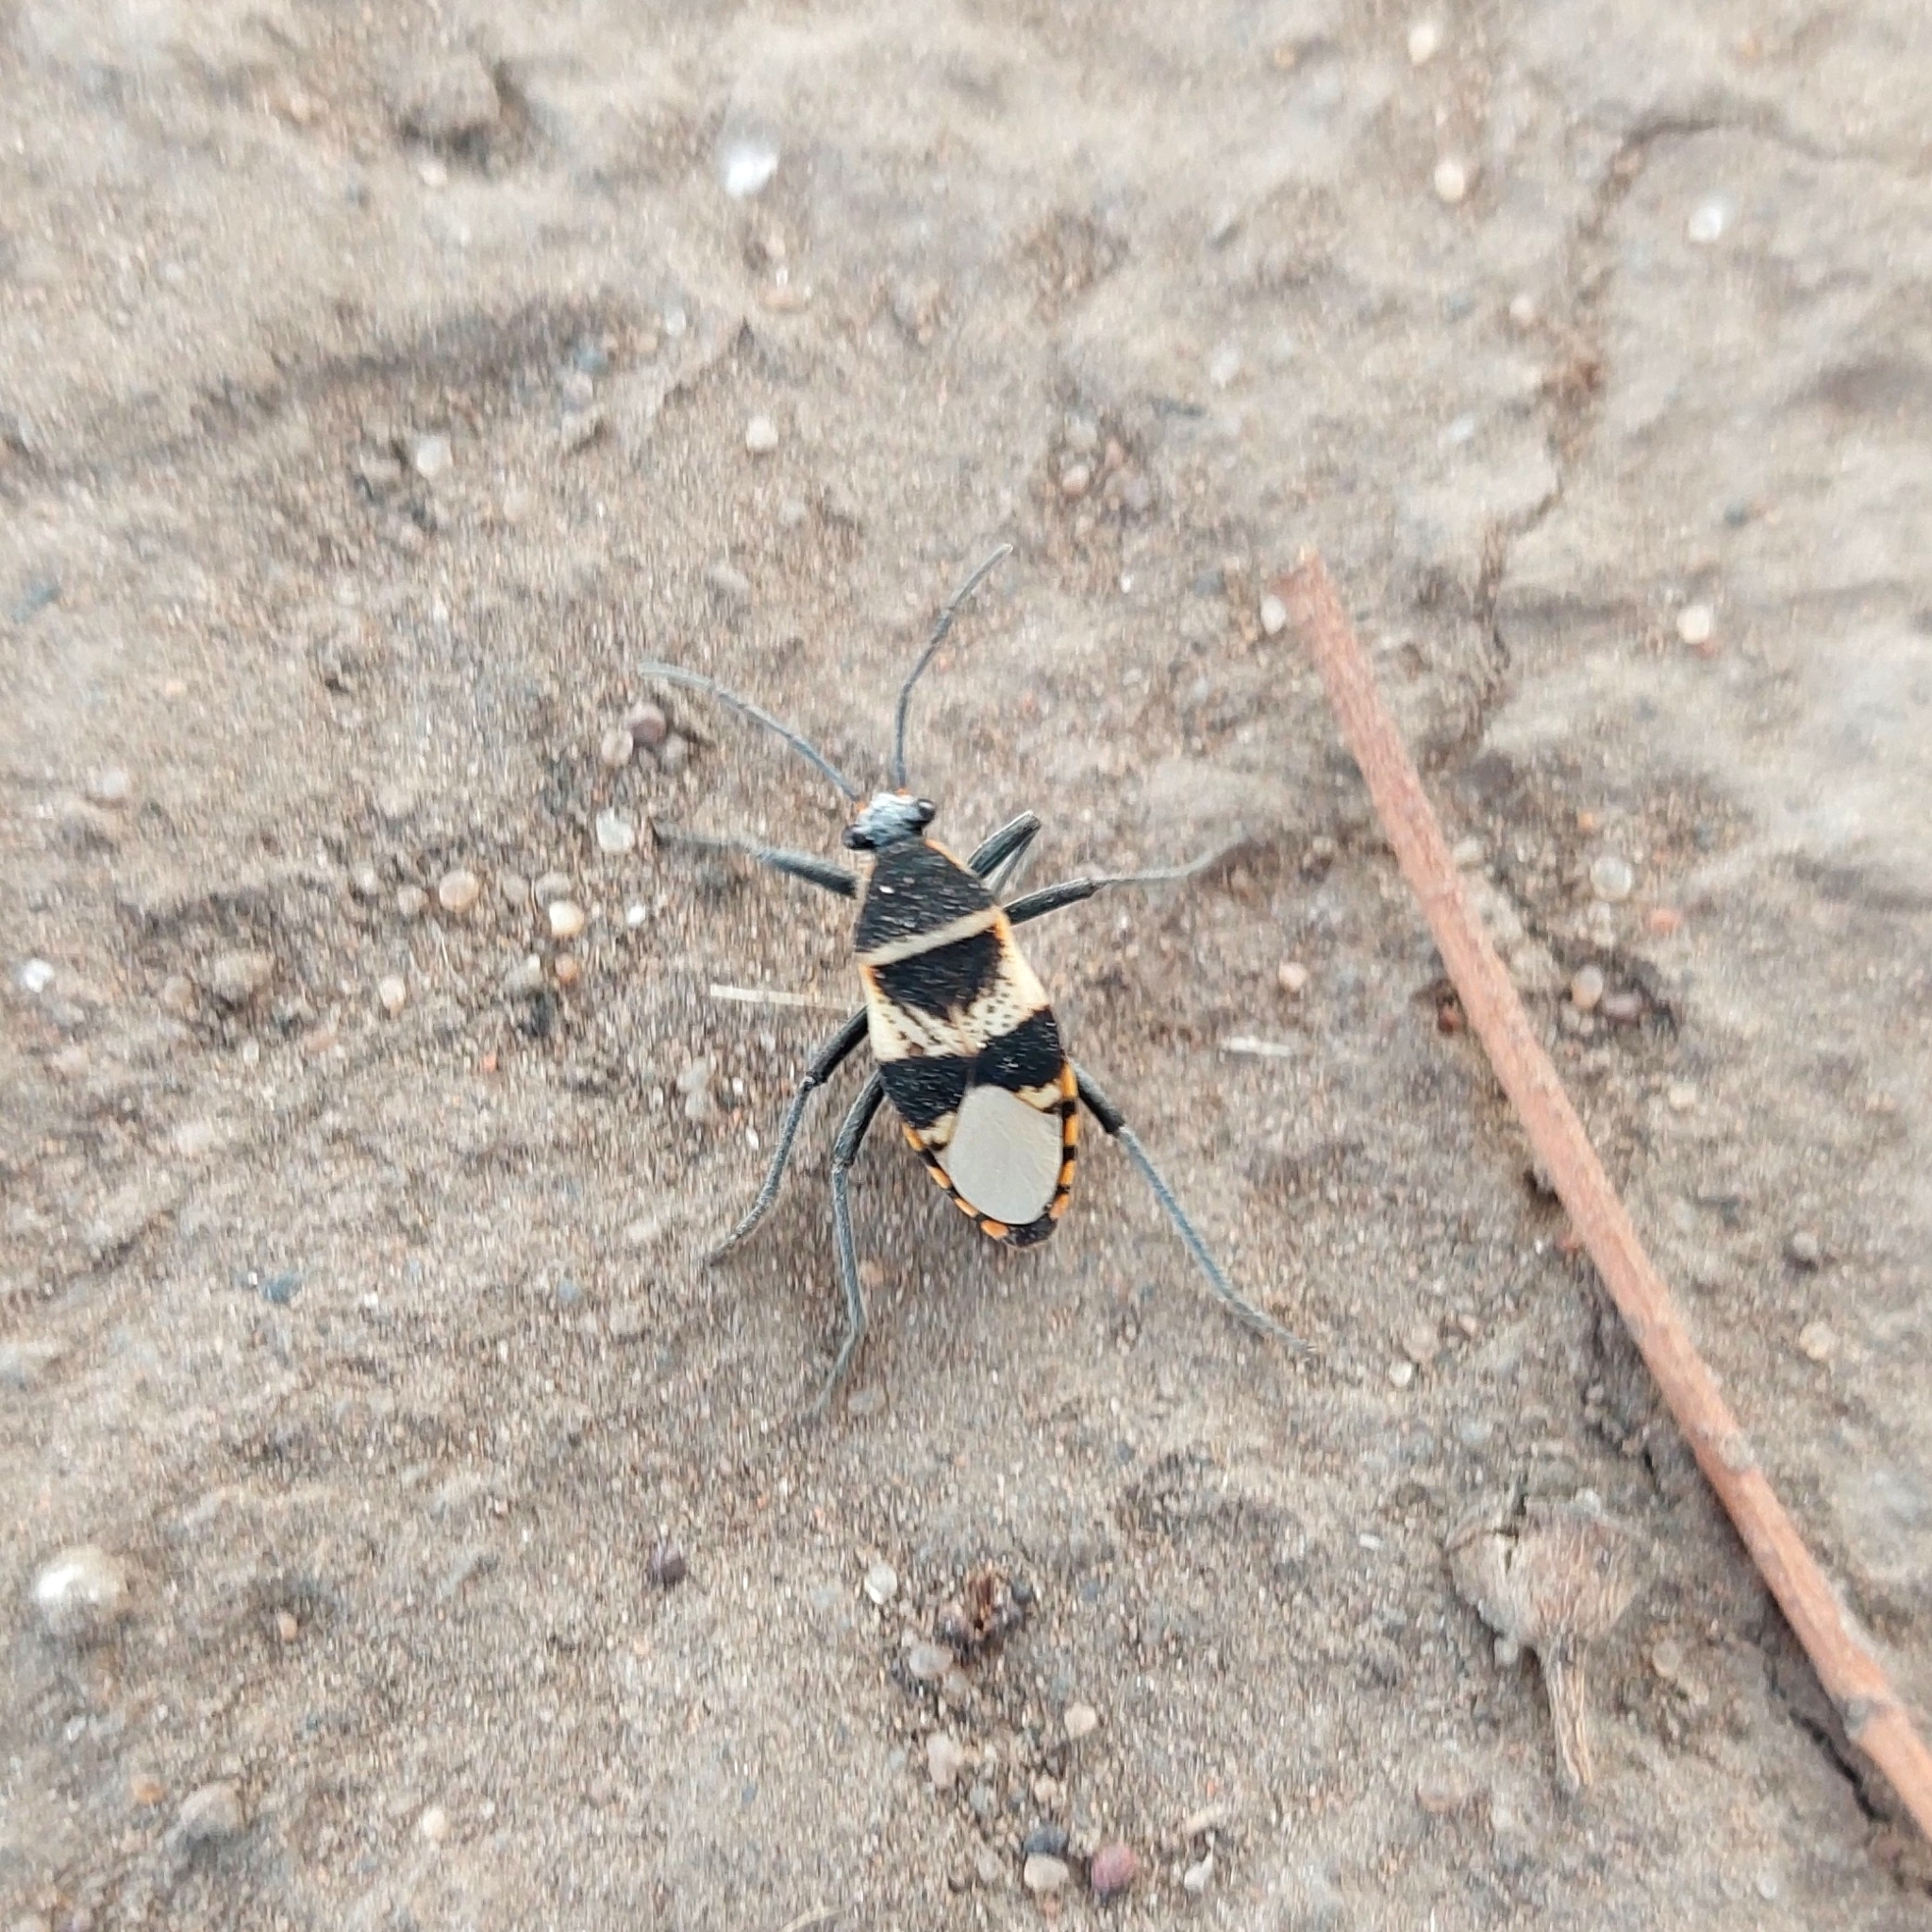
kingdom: Animalia
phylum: Arthropoda
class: Insecta
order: Hemiptera
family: Largidae
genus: Largus
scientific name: Largus fasciatus
